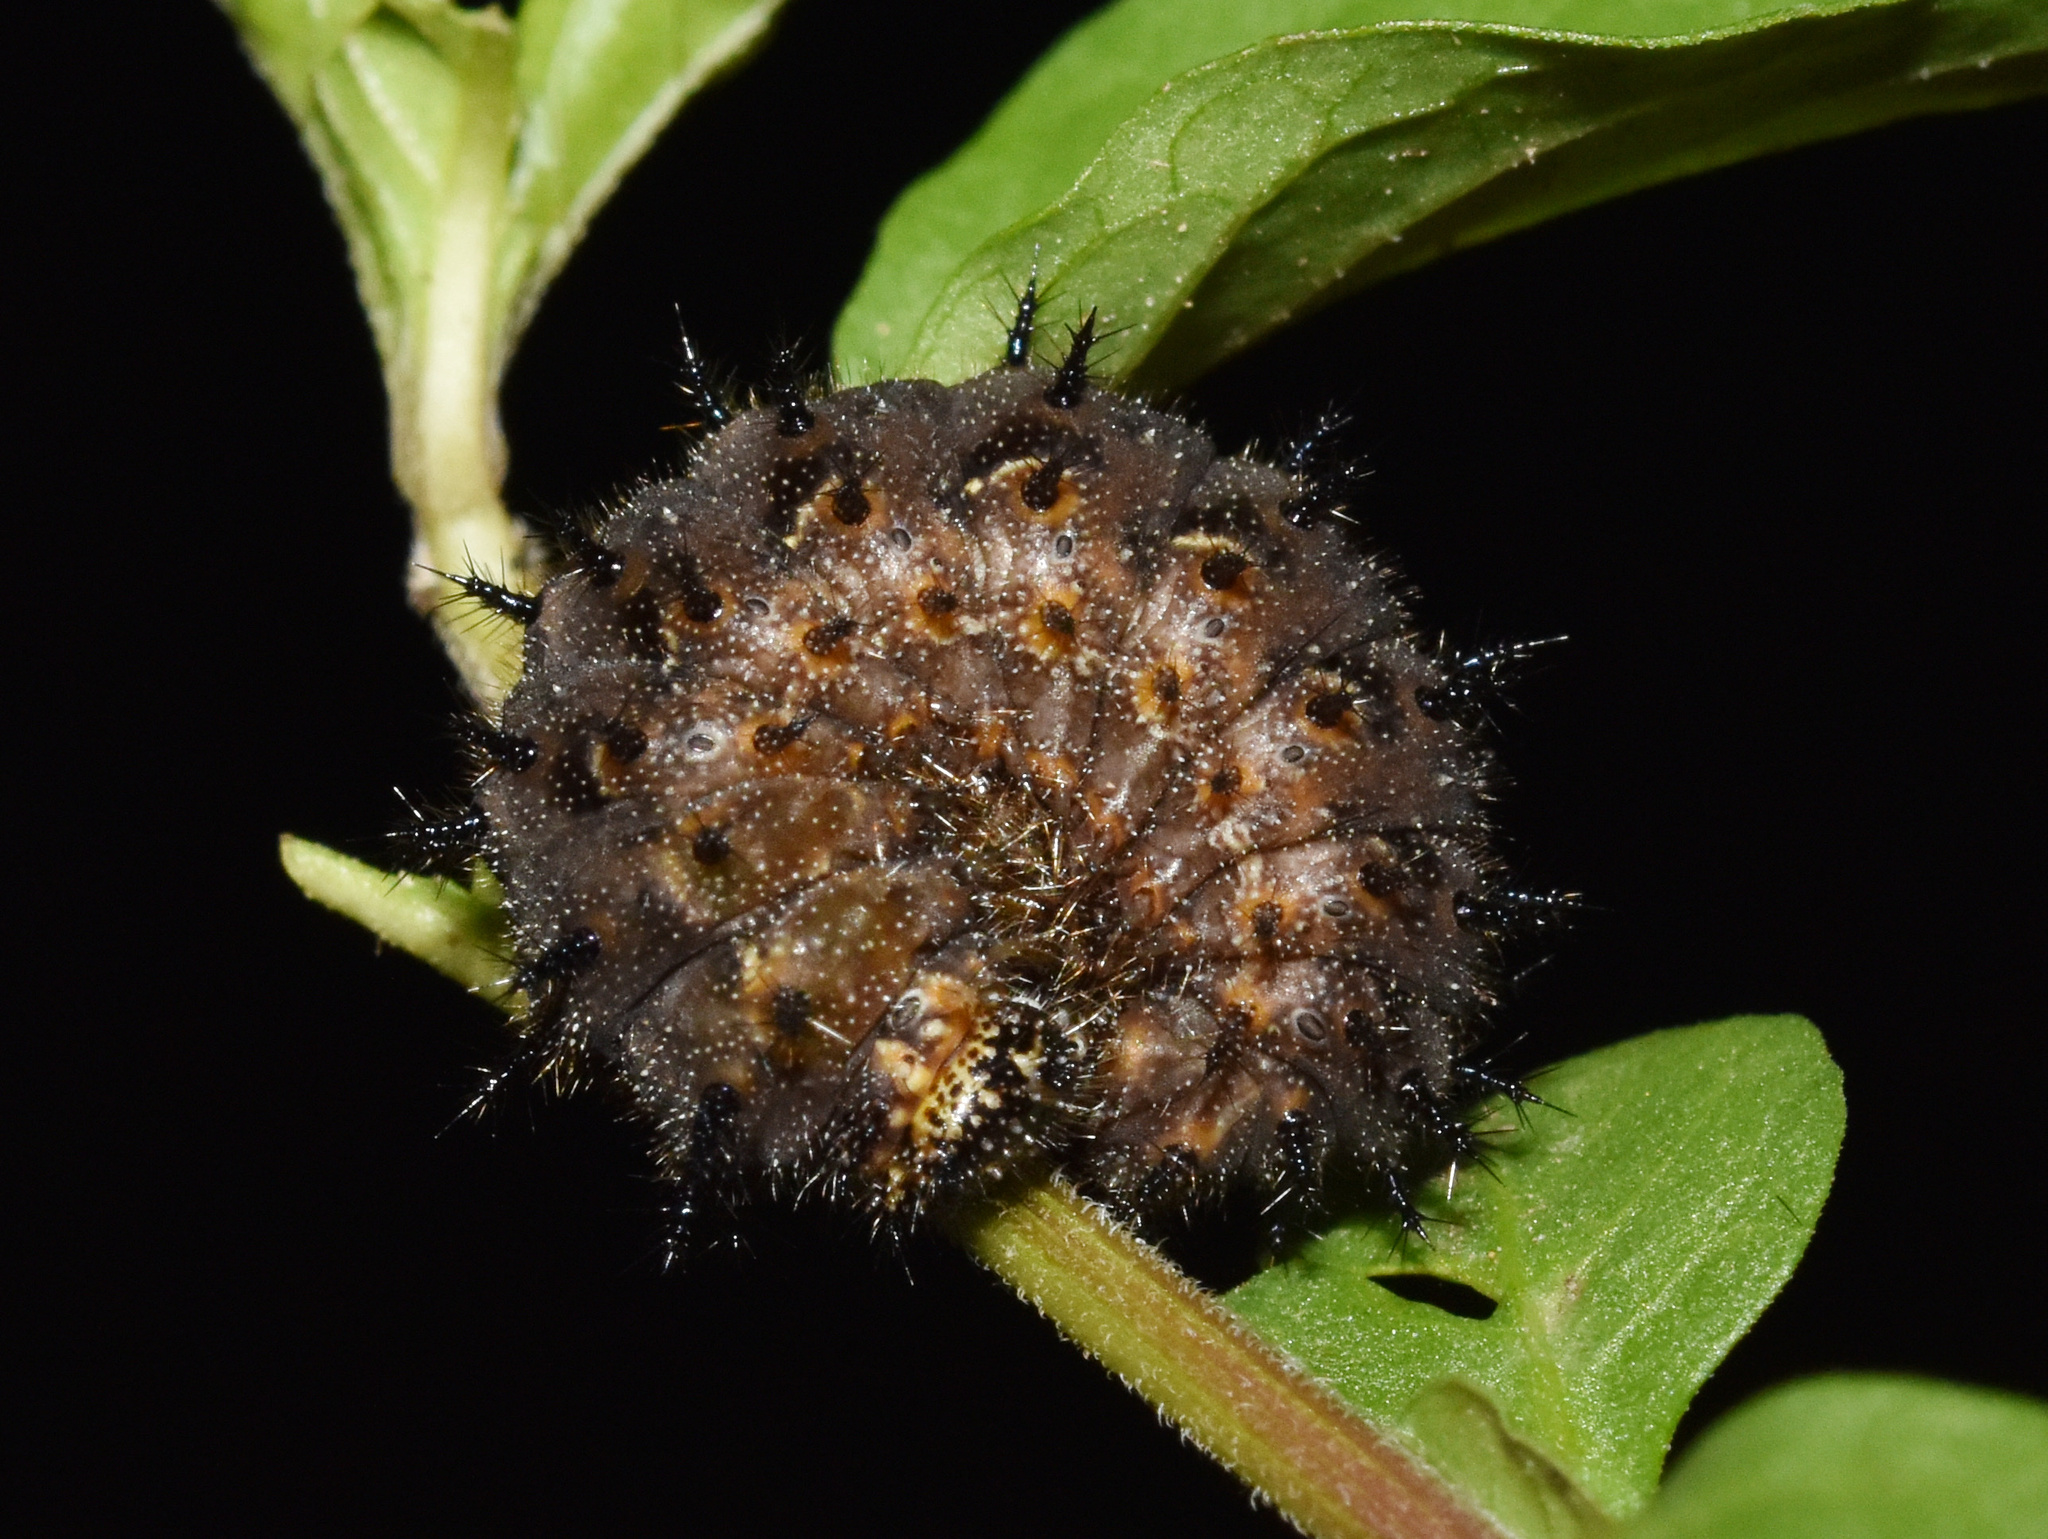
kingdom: Animalia
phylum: Arthropoda
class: Insecta
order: Lepidoptera
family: Nymphalidae
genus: Junonia
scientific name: Junonia hierta
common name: Yellow pansy
